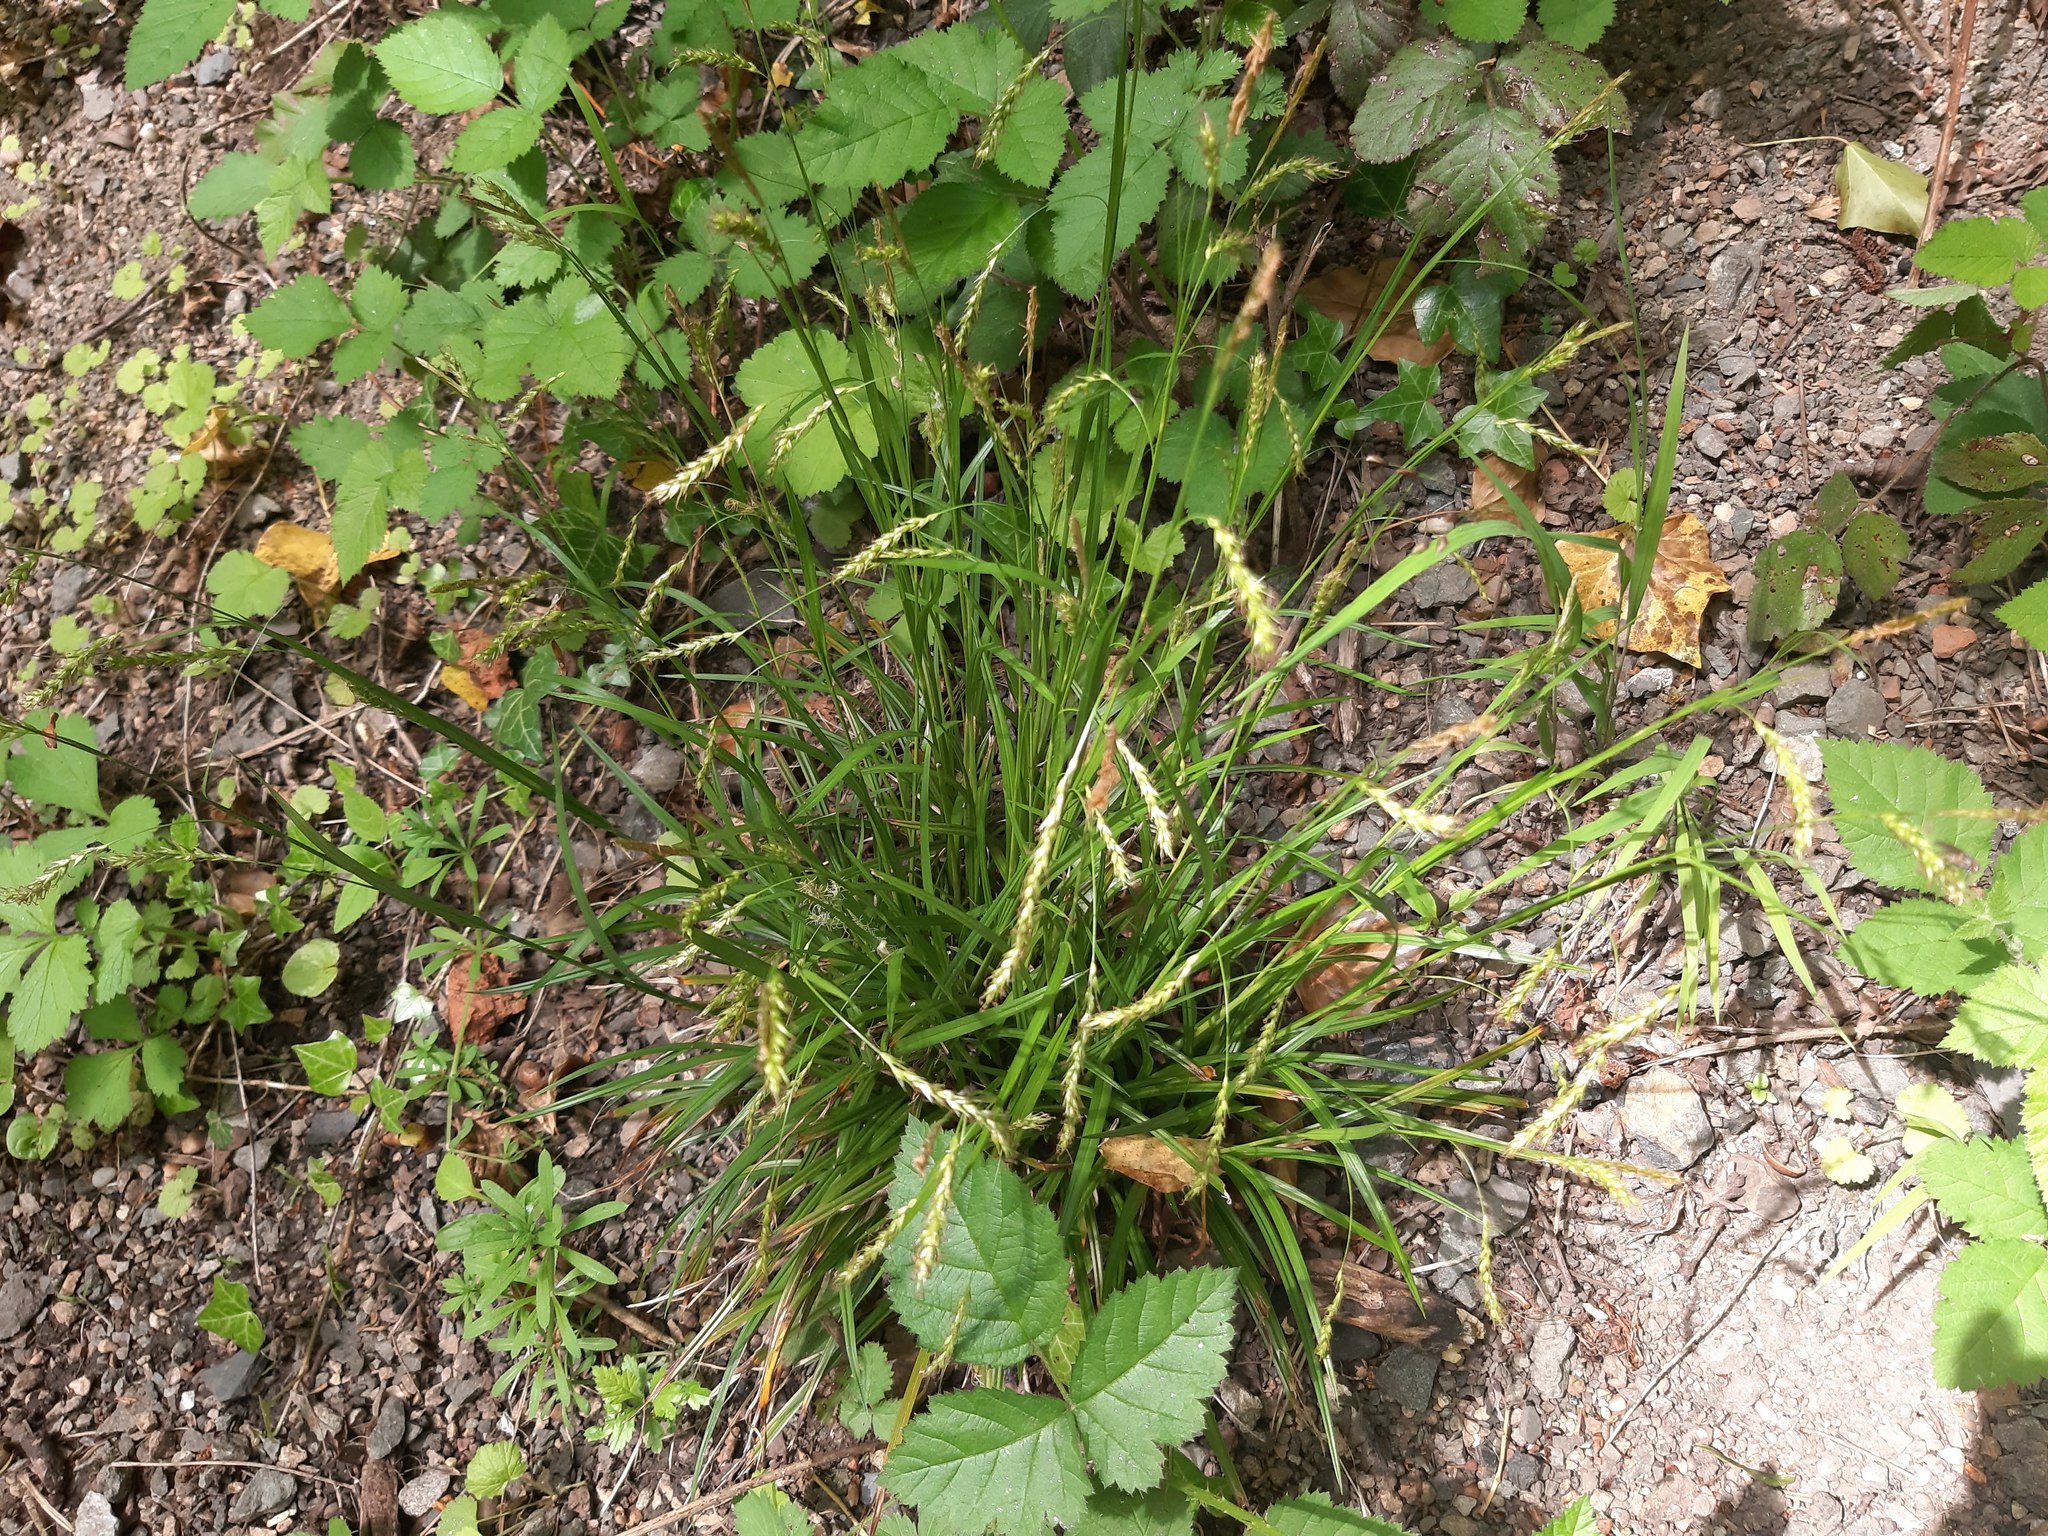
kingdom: Plantae
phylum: Tracheophyta
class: Liliopsida
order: Poales
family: Cyperaceae
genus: Carex
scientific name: Carex sylvatica
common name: Wood-sedge
